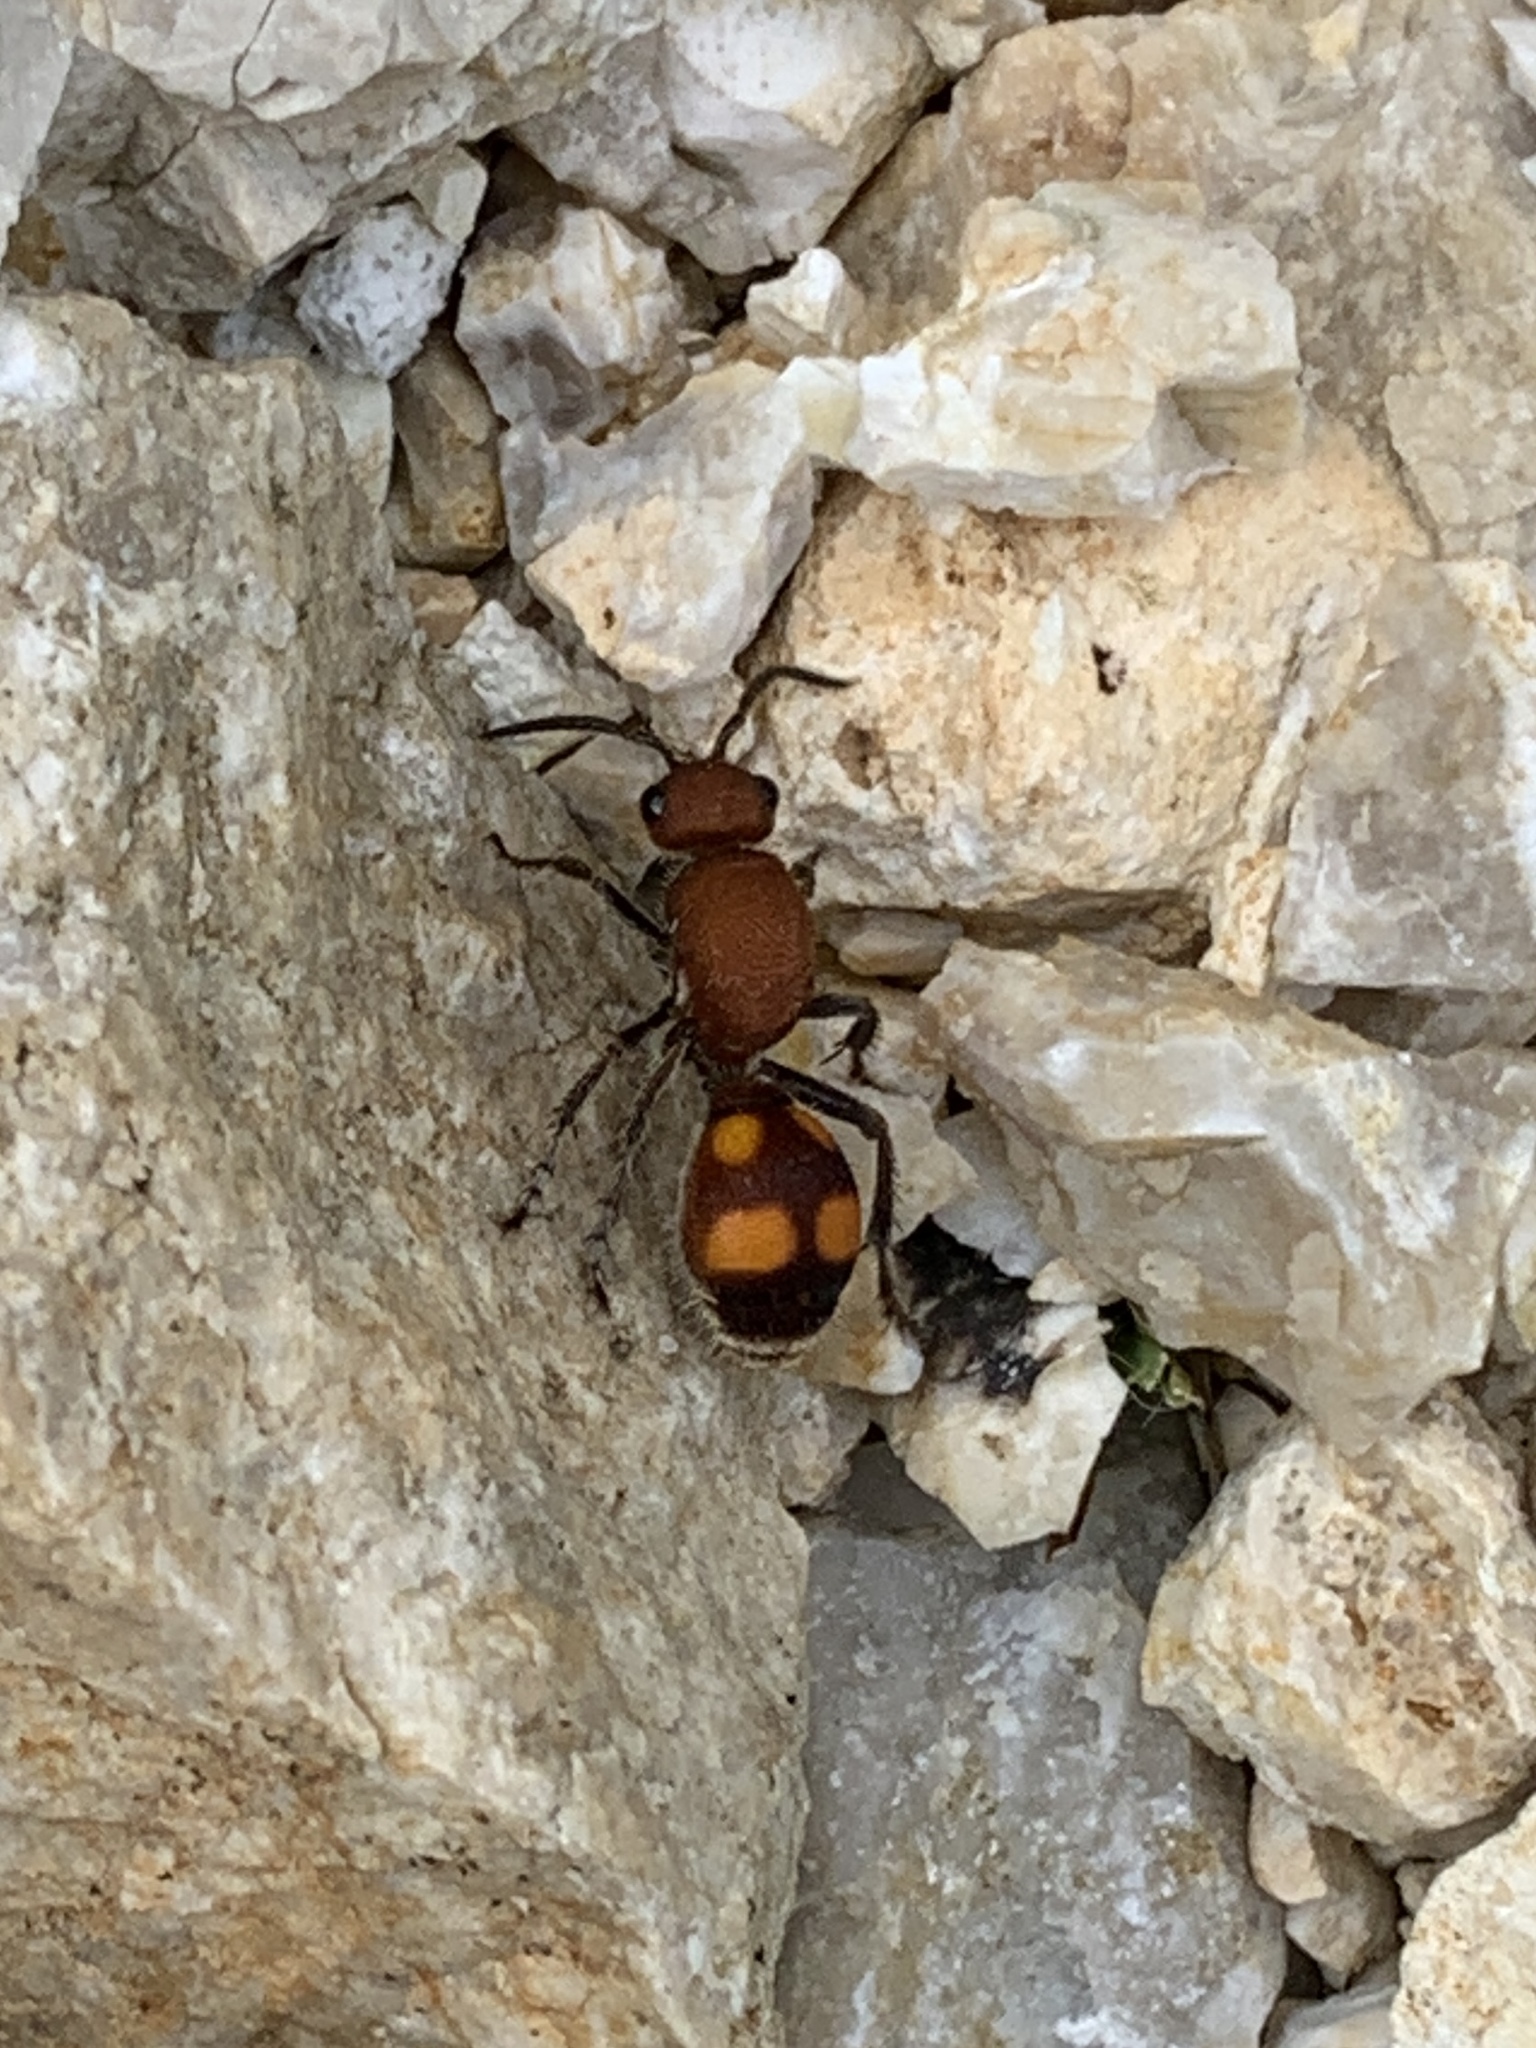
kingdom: Animalia
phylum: Arthropoda
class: Insecta
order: Hymenoptera
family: Mutillidae
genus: Dasymutilla
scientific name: Dasymutilla
